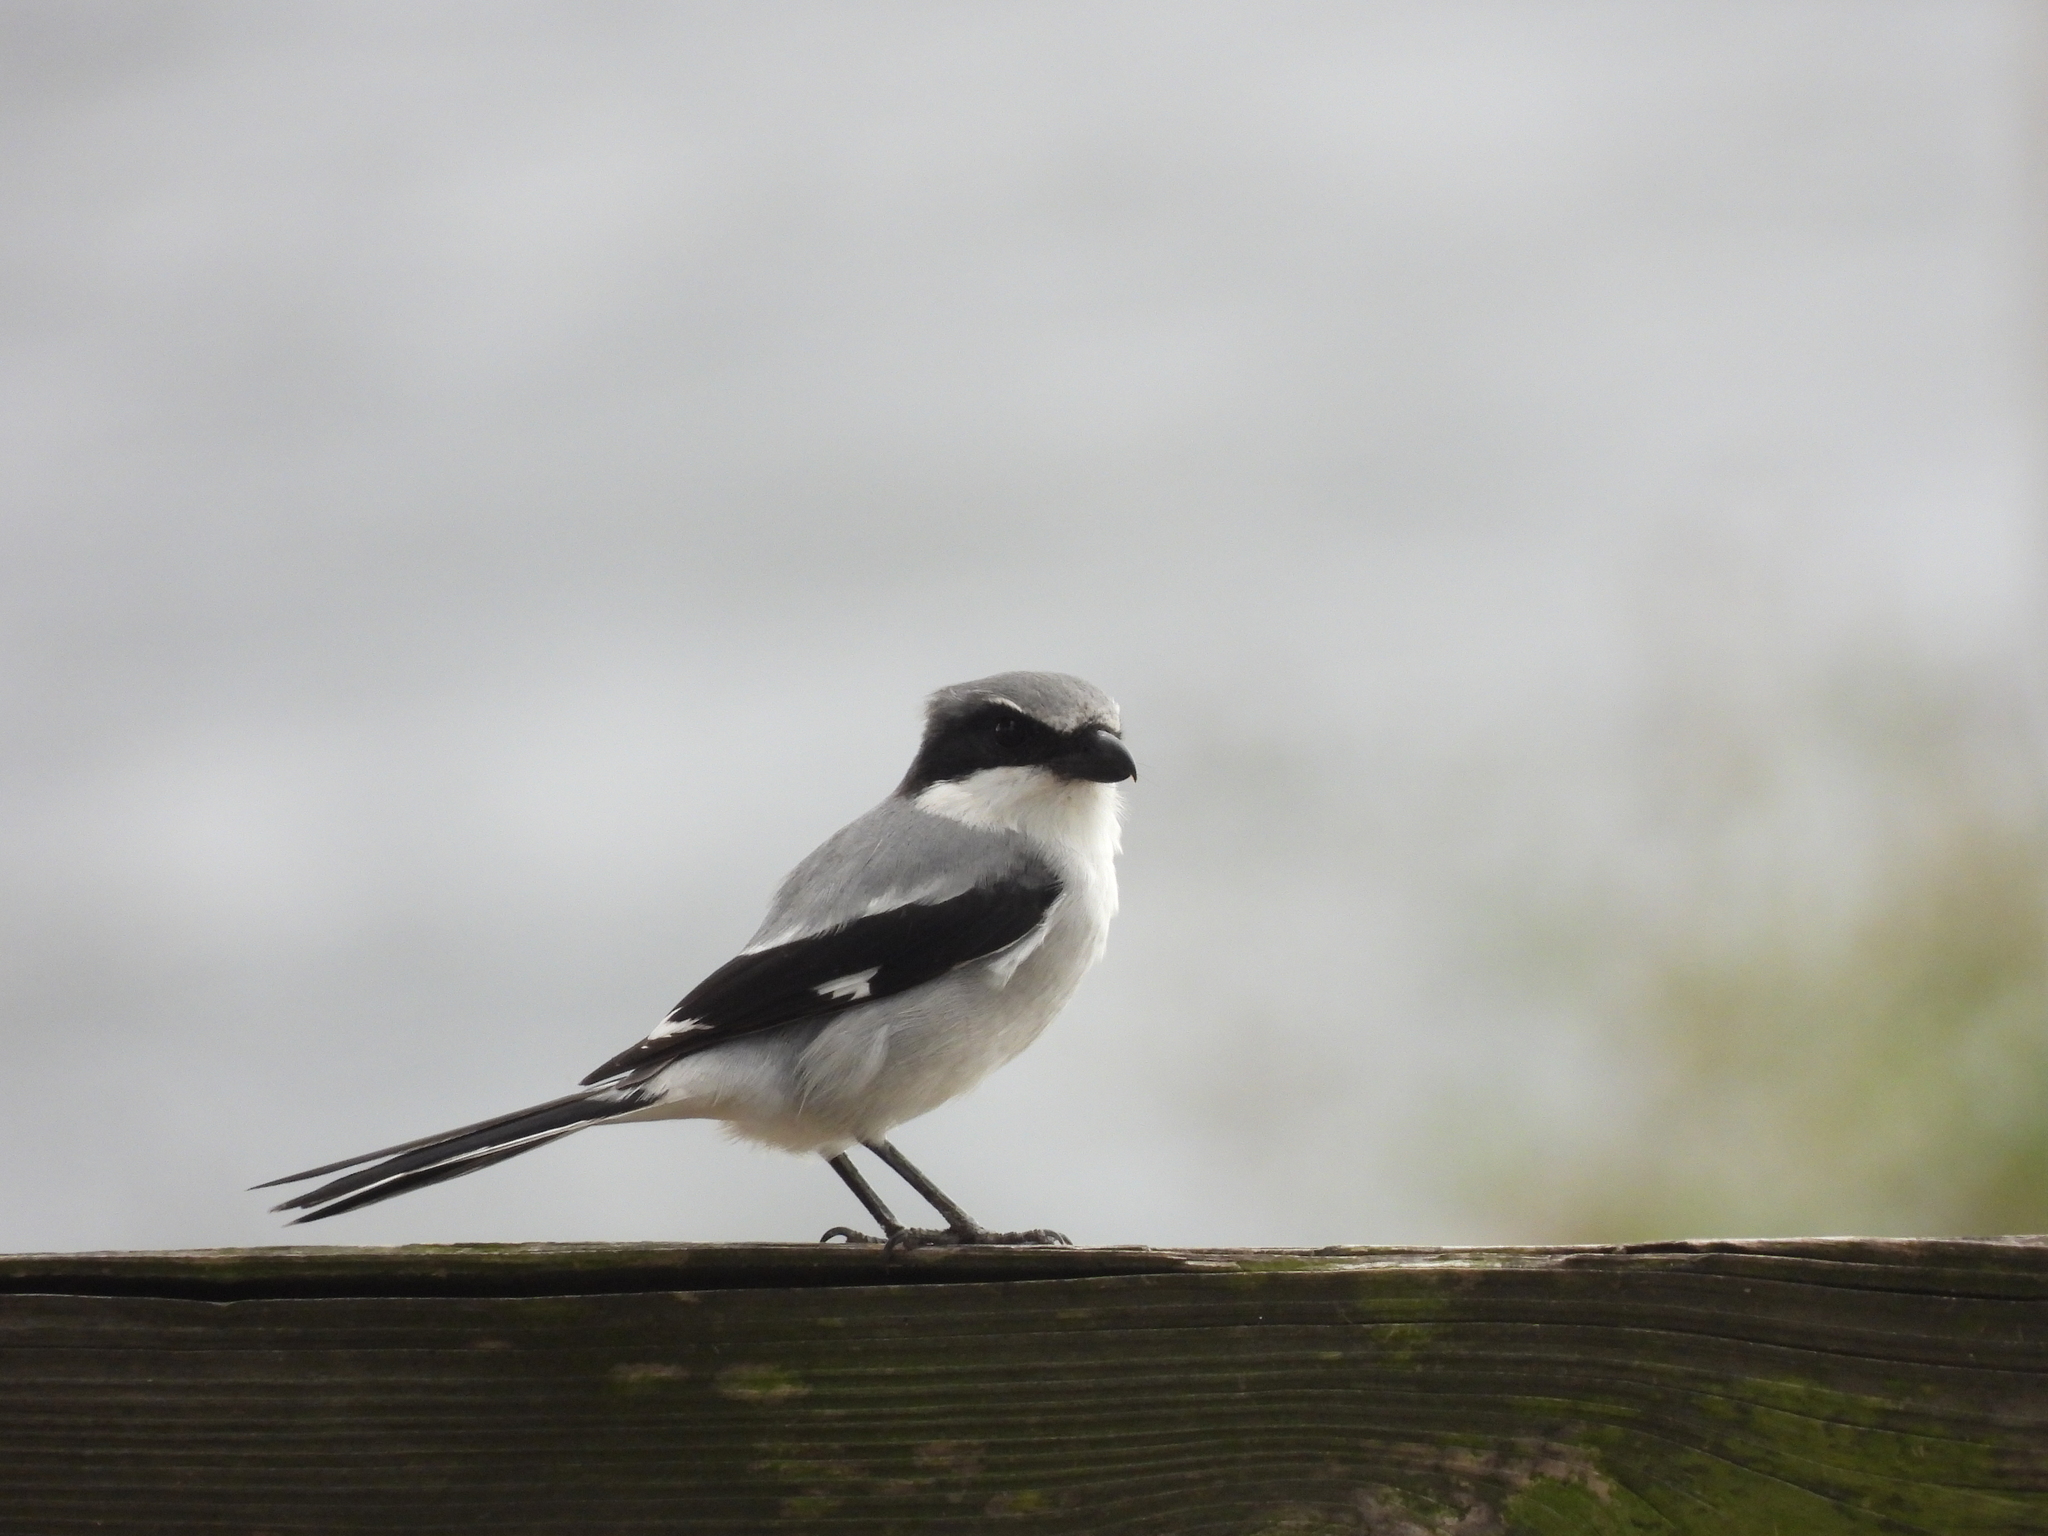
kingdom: Animalia
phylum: Chordata
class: Aves
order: Passeriformes
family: Laniidae
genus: Lanius
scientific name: Lanius ludovicianus
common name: Loggerhead shrike
